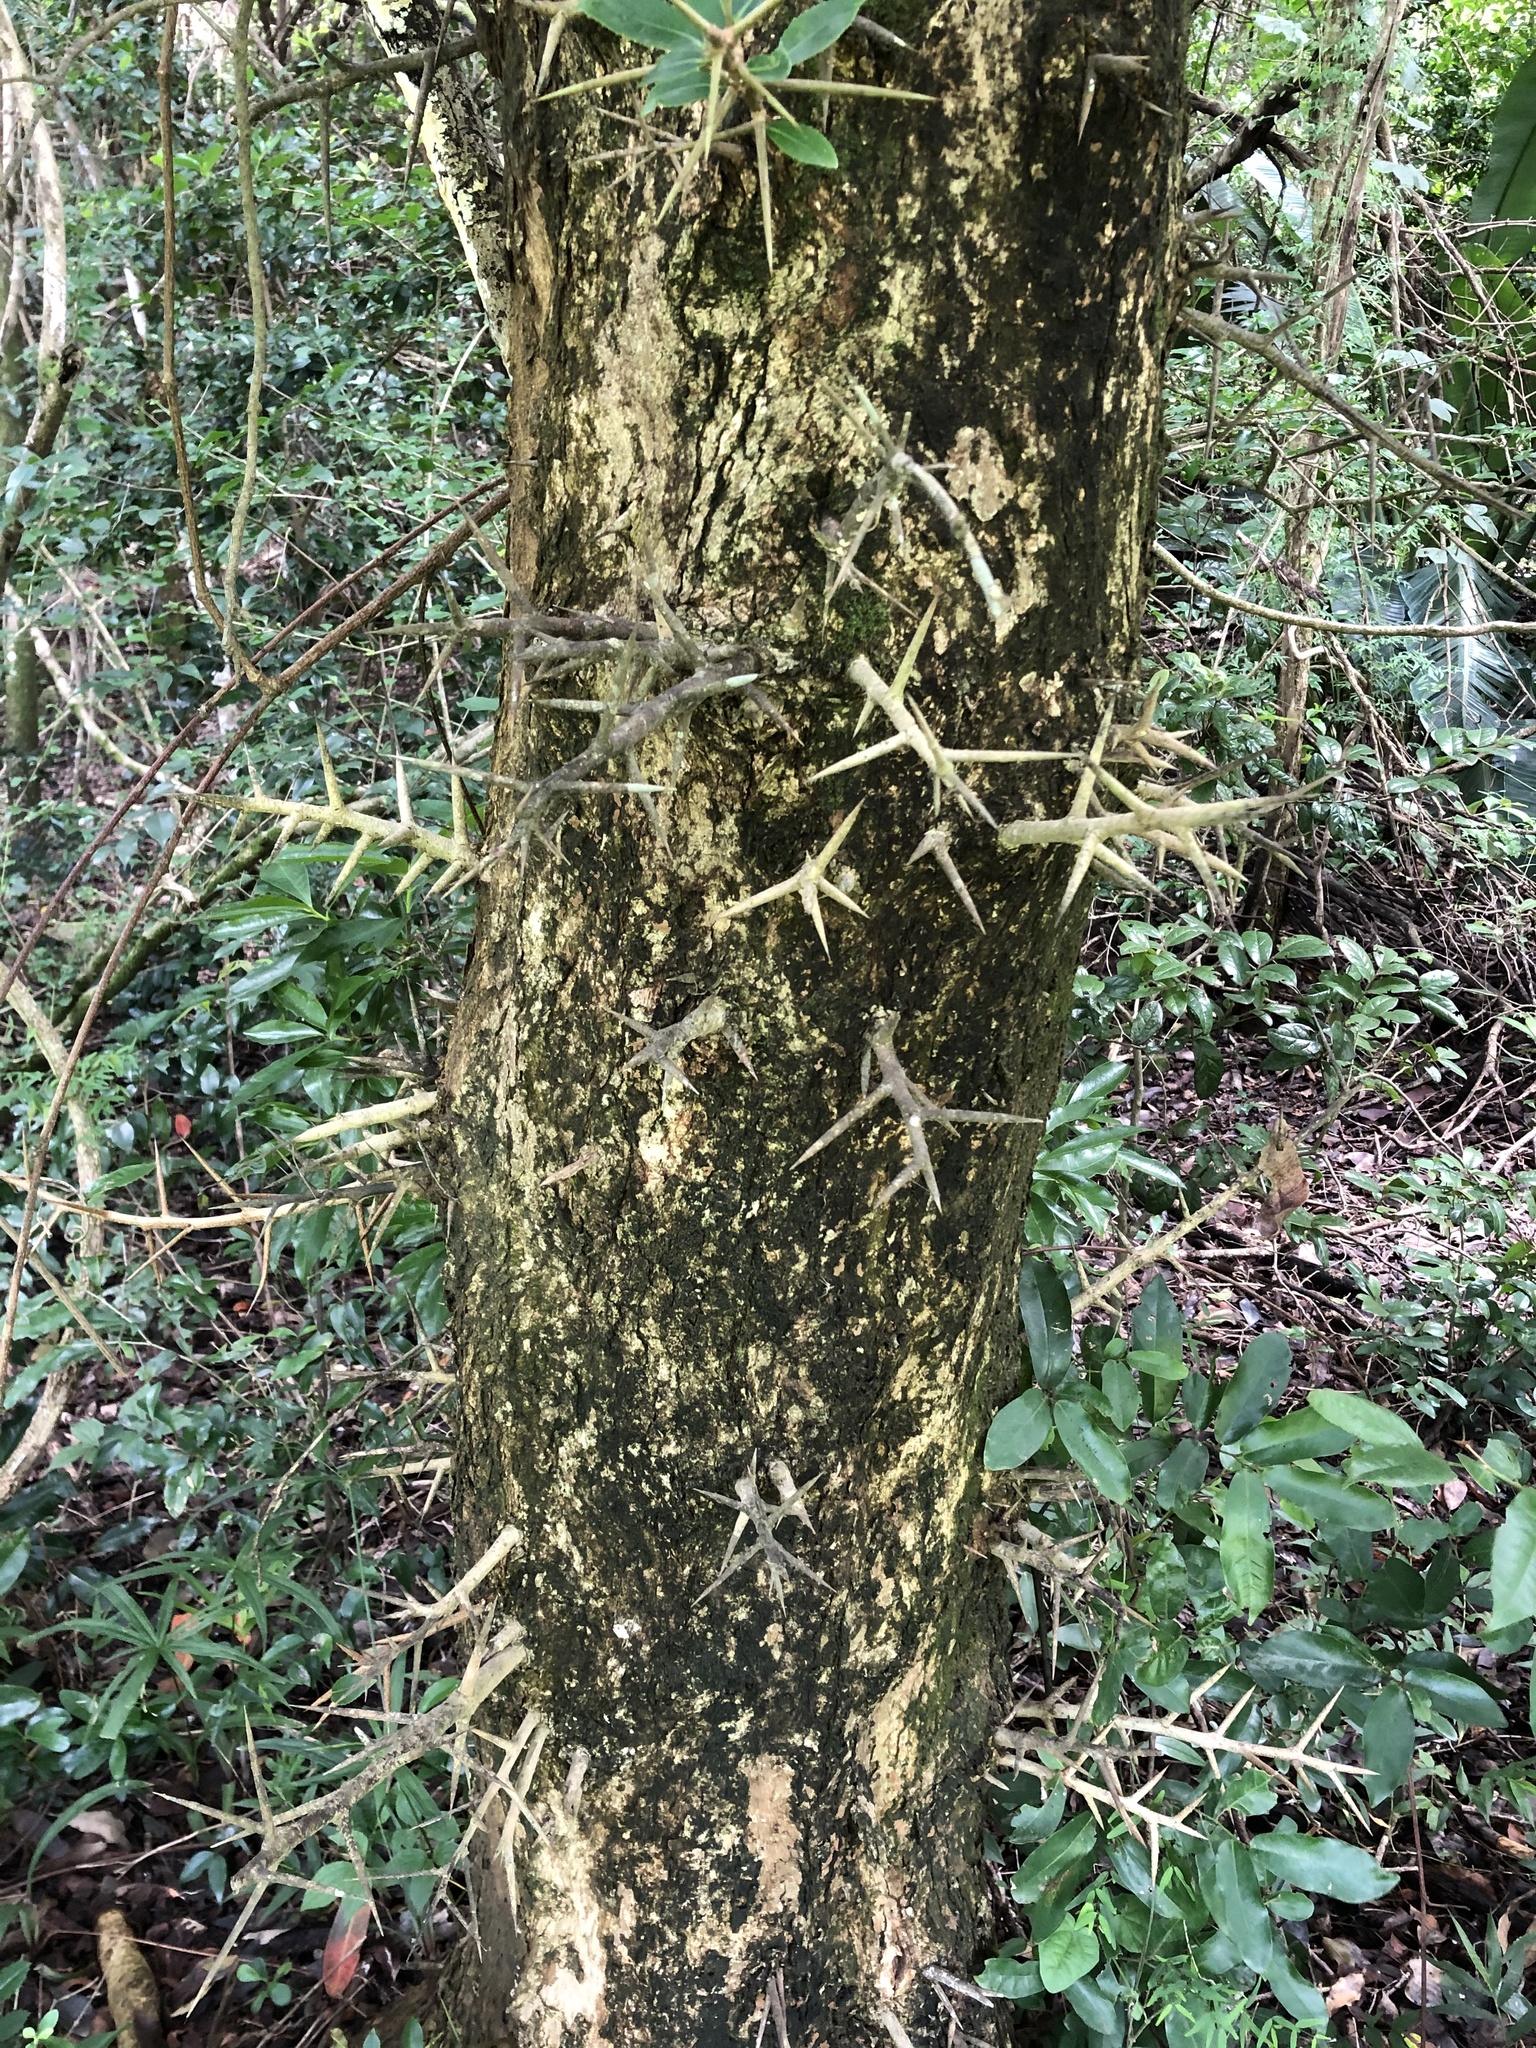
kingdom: Plantae
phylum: Tracheophyta
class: Magnoliopsida
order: Malpighiales
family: Salicaceae
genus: Scolopia
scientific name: Scolopia zeyheri
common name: Thorn pear
